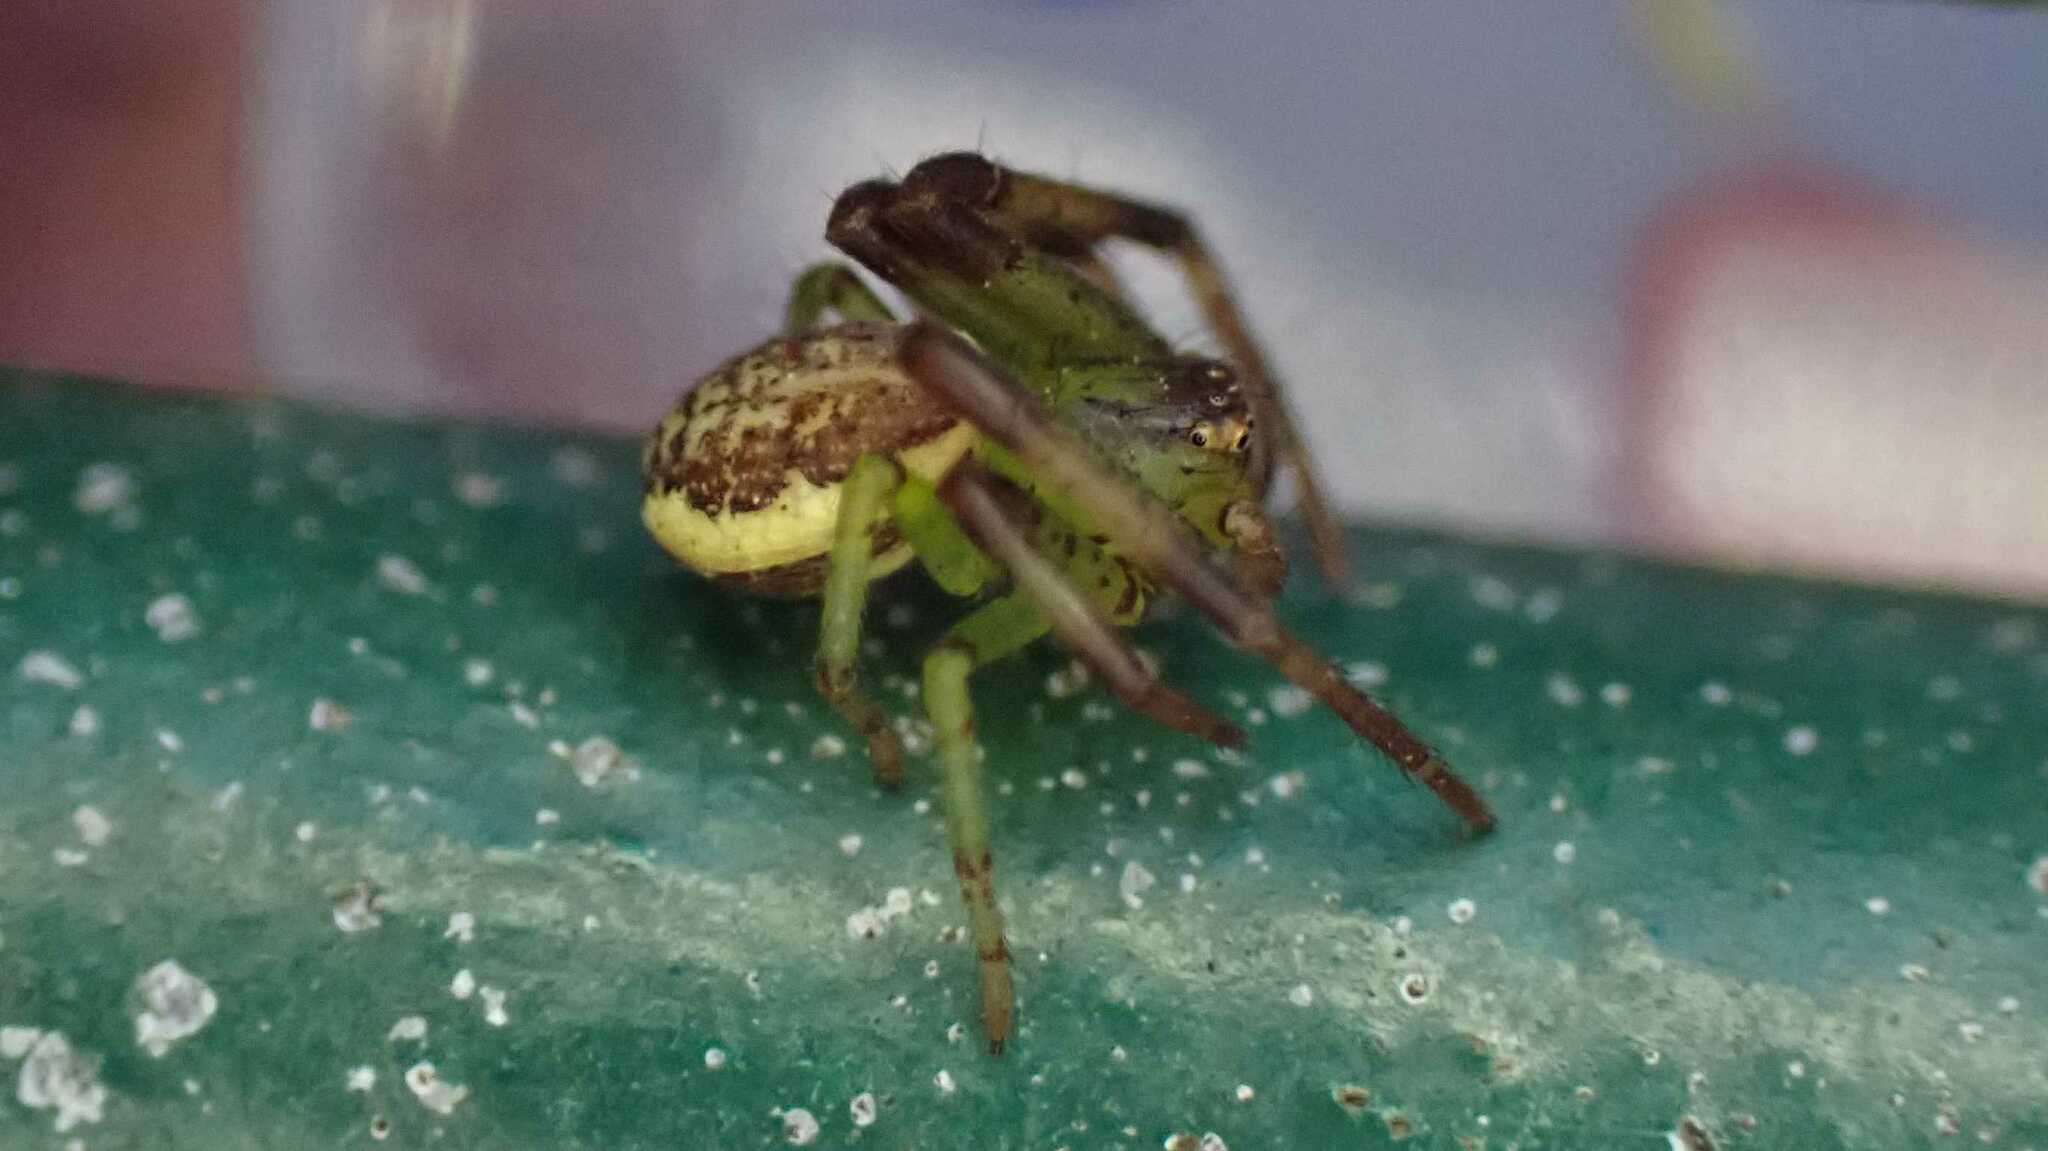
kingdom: Animalia
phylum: Arthropoda
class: Arachnida
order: Araneae
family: Thomisidae
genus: Diaea
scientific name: Diaea dorsata
